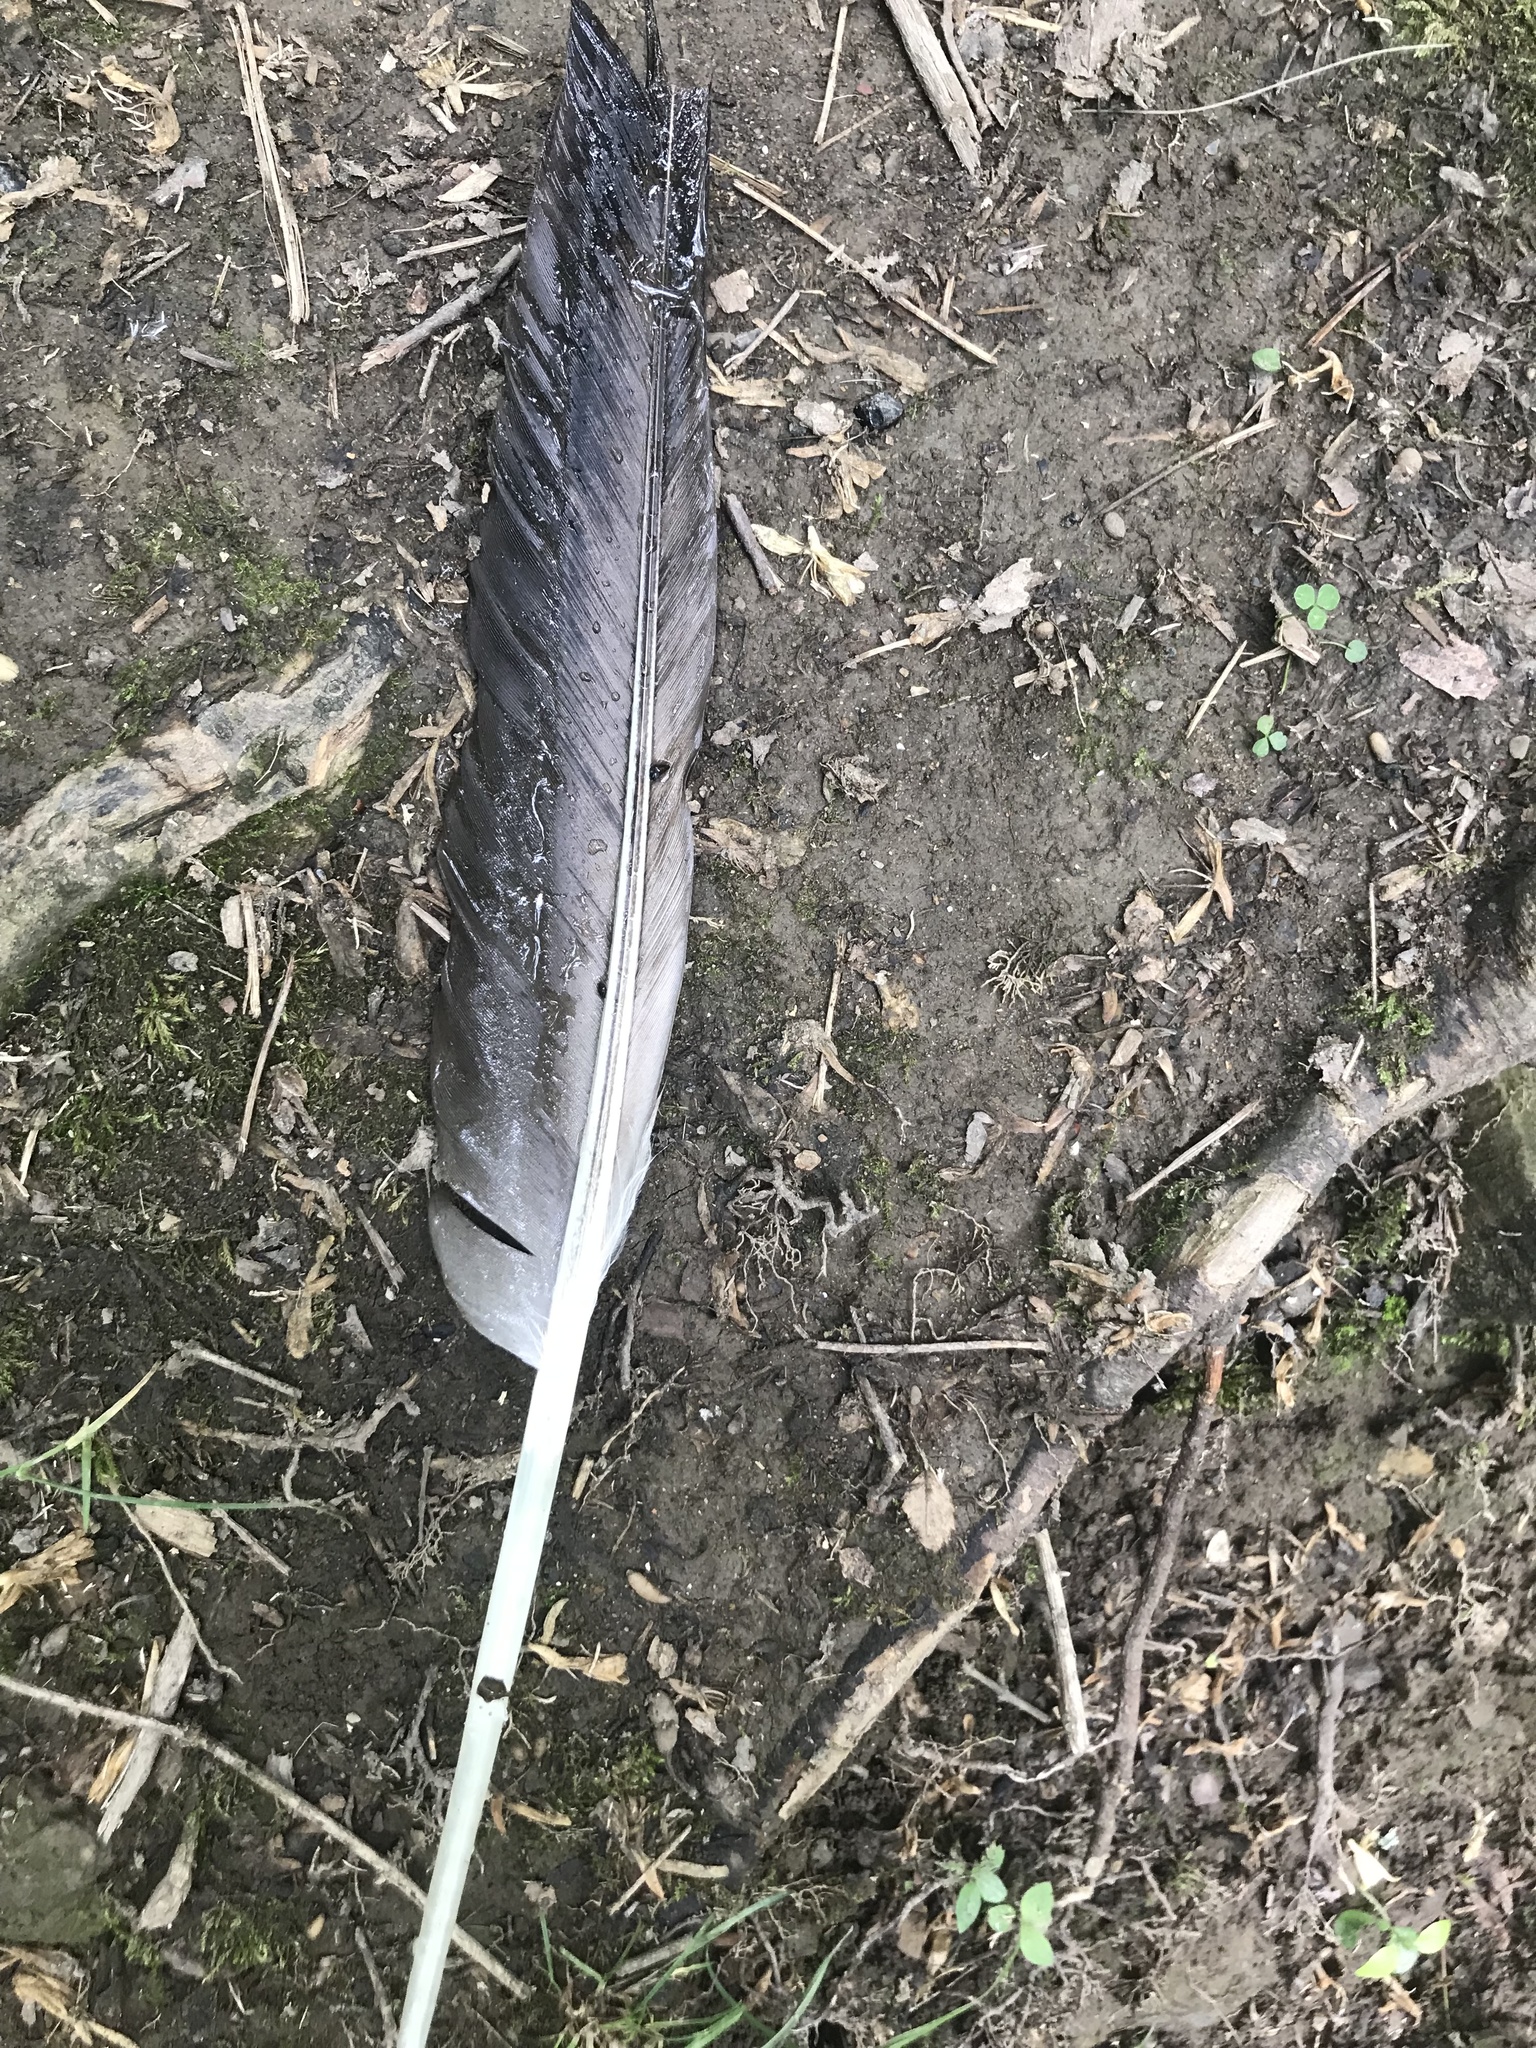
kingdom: Animalia
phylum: Chordata
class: Aves
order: Anseriformes
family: Anatidae
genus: Branta
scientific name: Branta canadensis
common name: Canada goose
